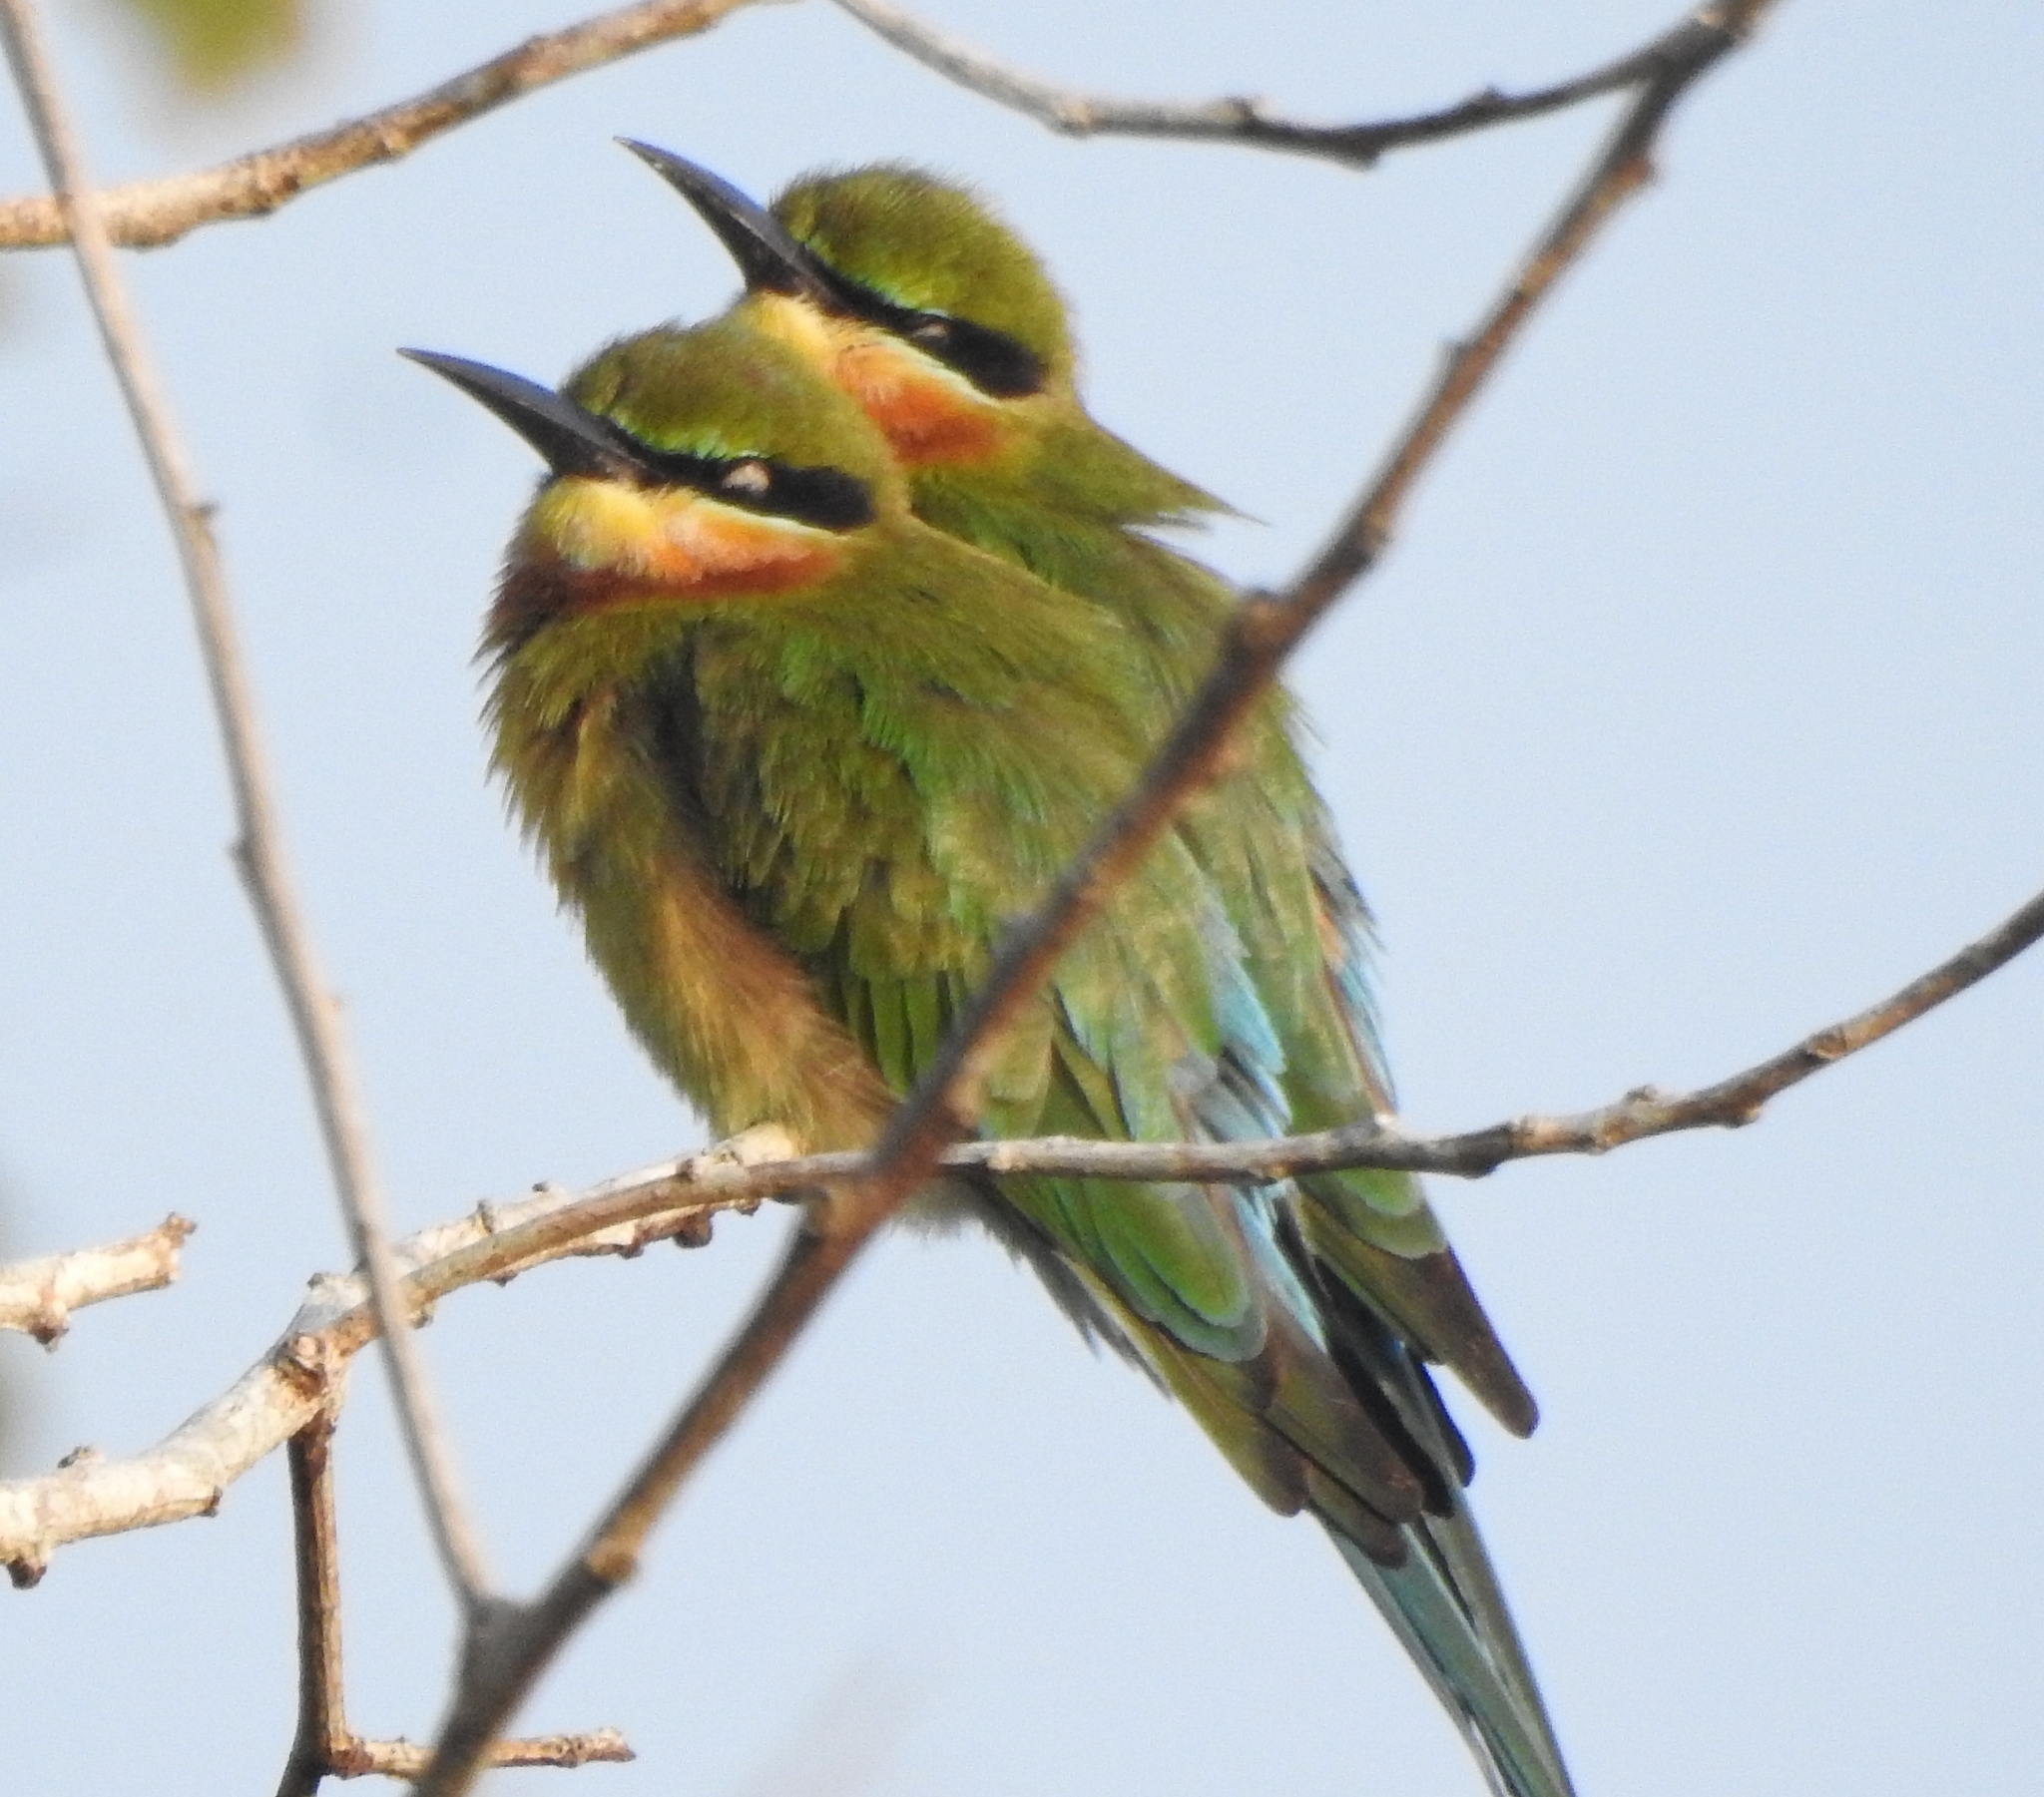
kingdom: Animalia
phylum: Chordata
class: Aves
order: Coraciiformes
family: Meropidae
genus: Merops
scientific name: Merops philippinus
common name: Blue-tailed bee-eater
